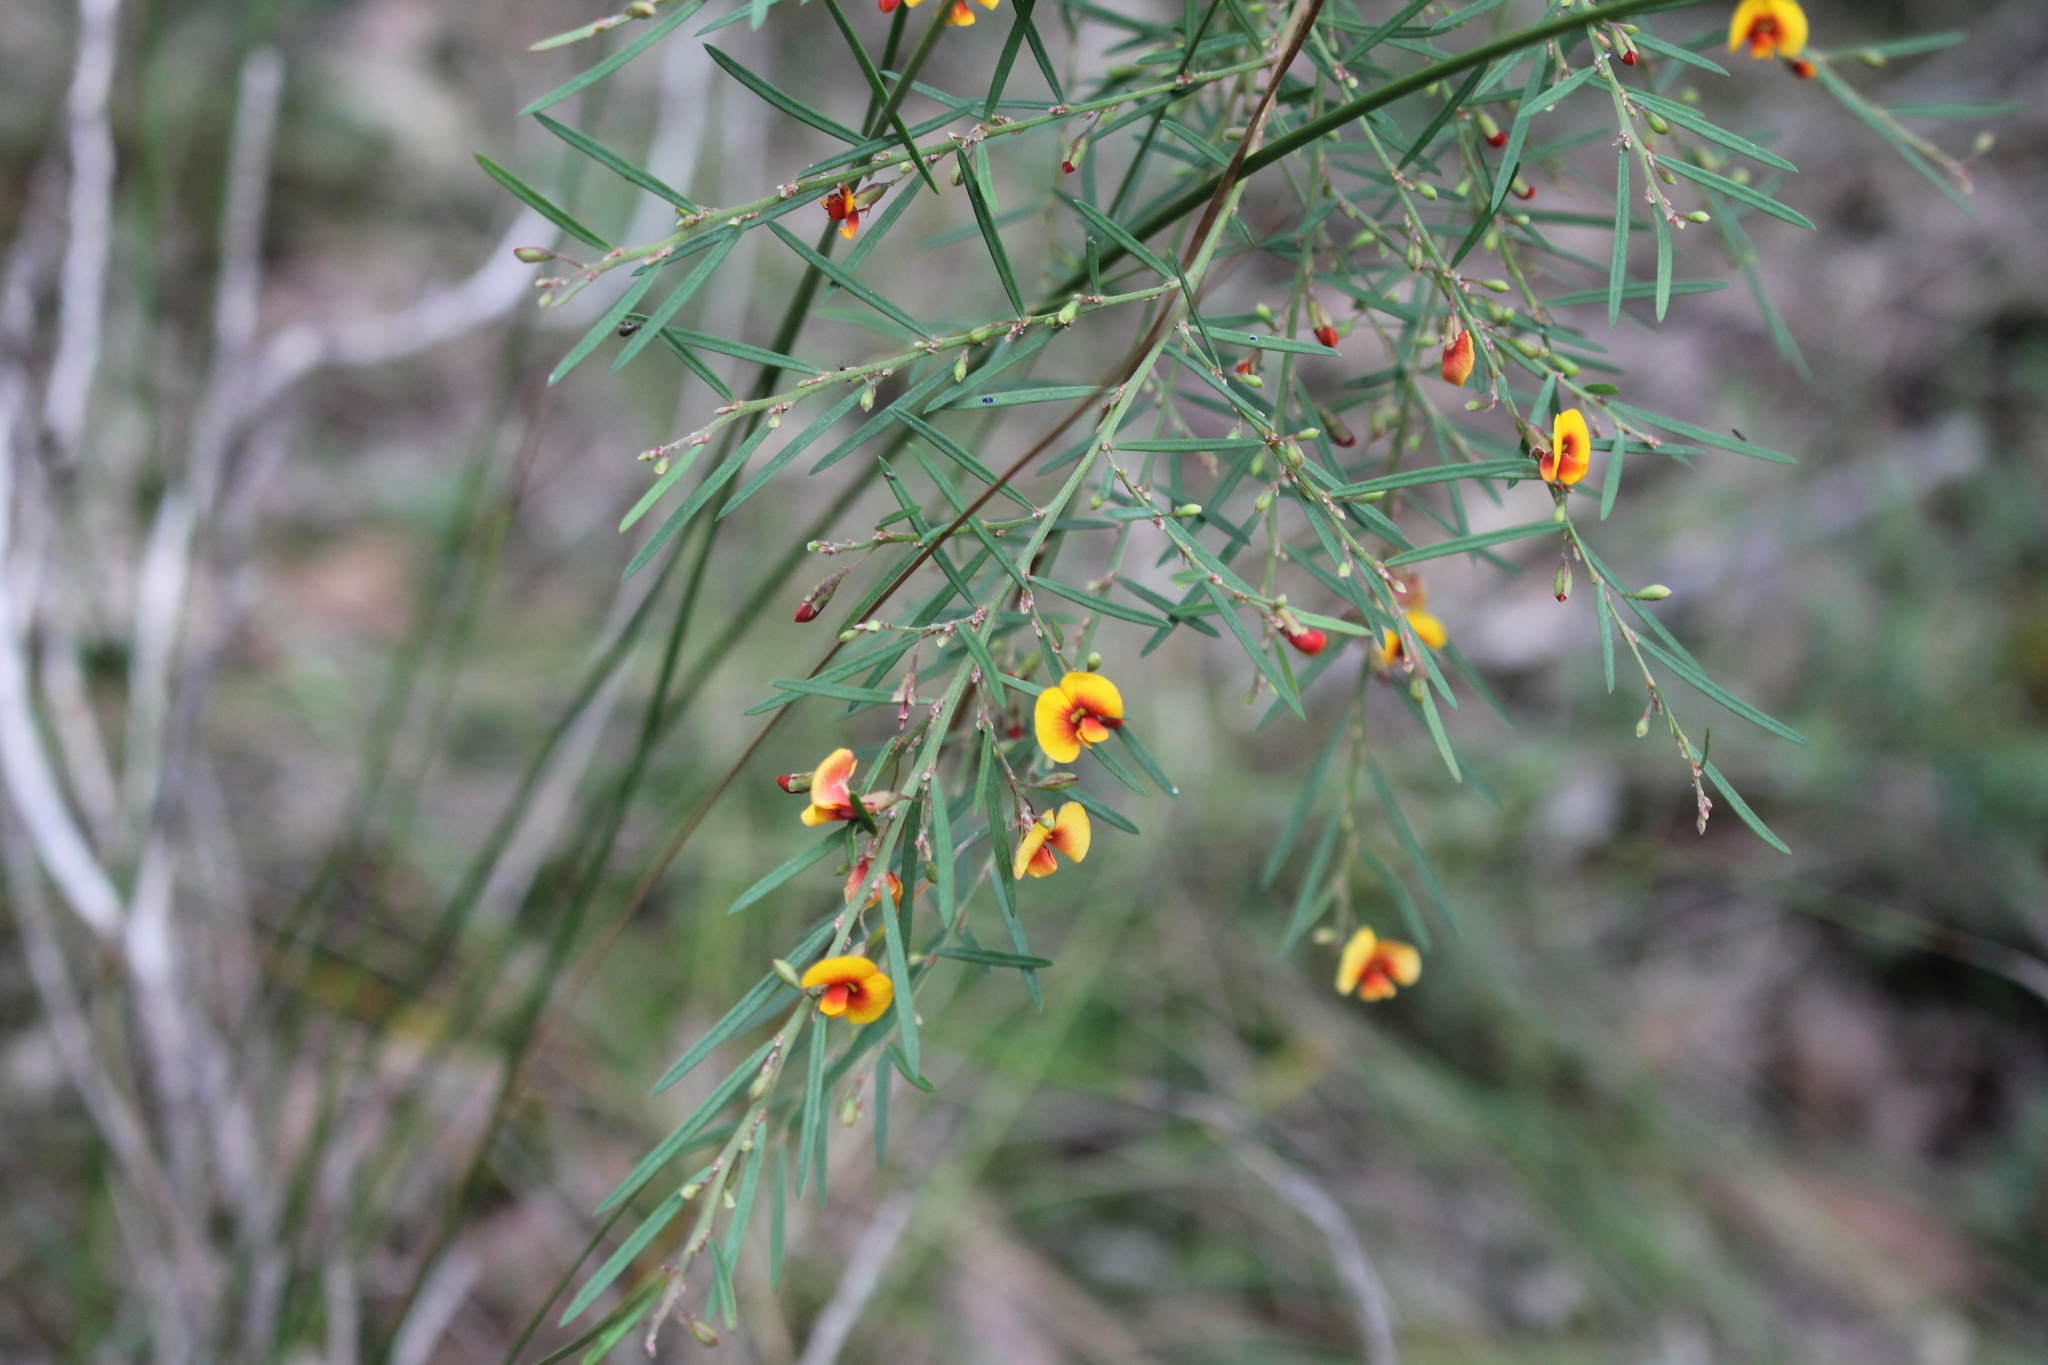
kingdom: Plantae
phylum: Tracheophyta
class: Magnoliopsida
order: Fabales
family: Fabaceae
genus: Bossiaea
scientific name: Bossiaea linophylla
